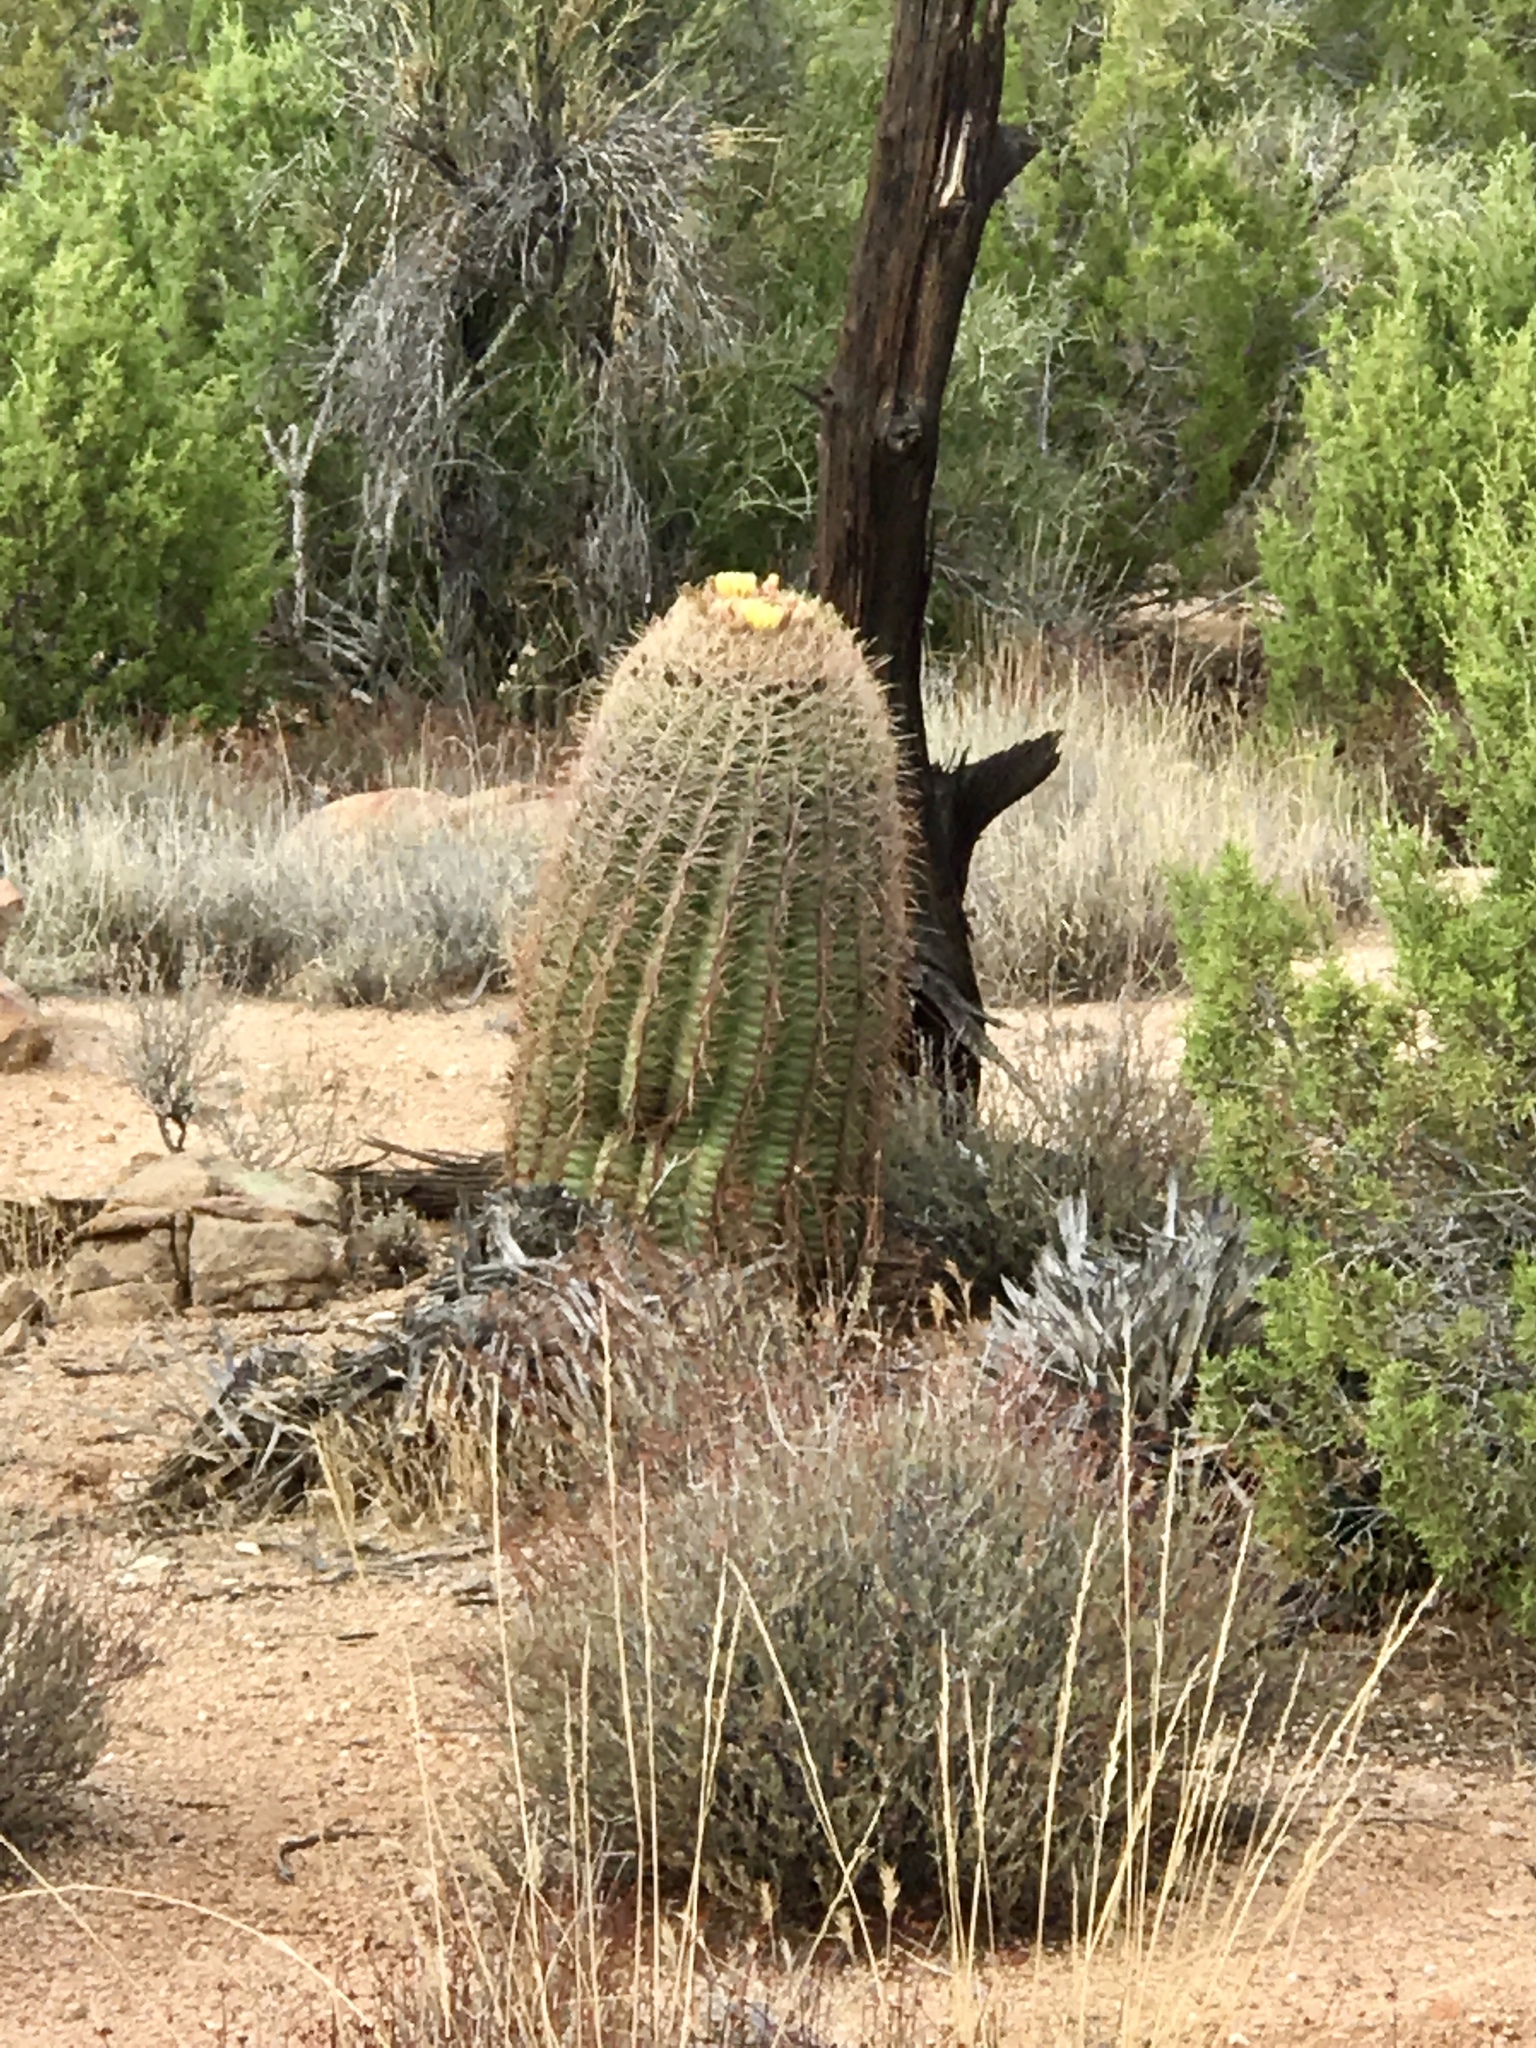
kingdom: Plantae
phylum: Tracheophyta
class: Magnoliopsida
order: Caryophyllales
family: Cactaceae
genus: Ferocactus
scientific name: Ferocactus cylindraceus
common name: California barrel cactus
